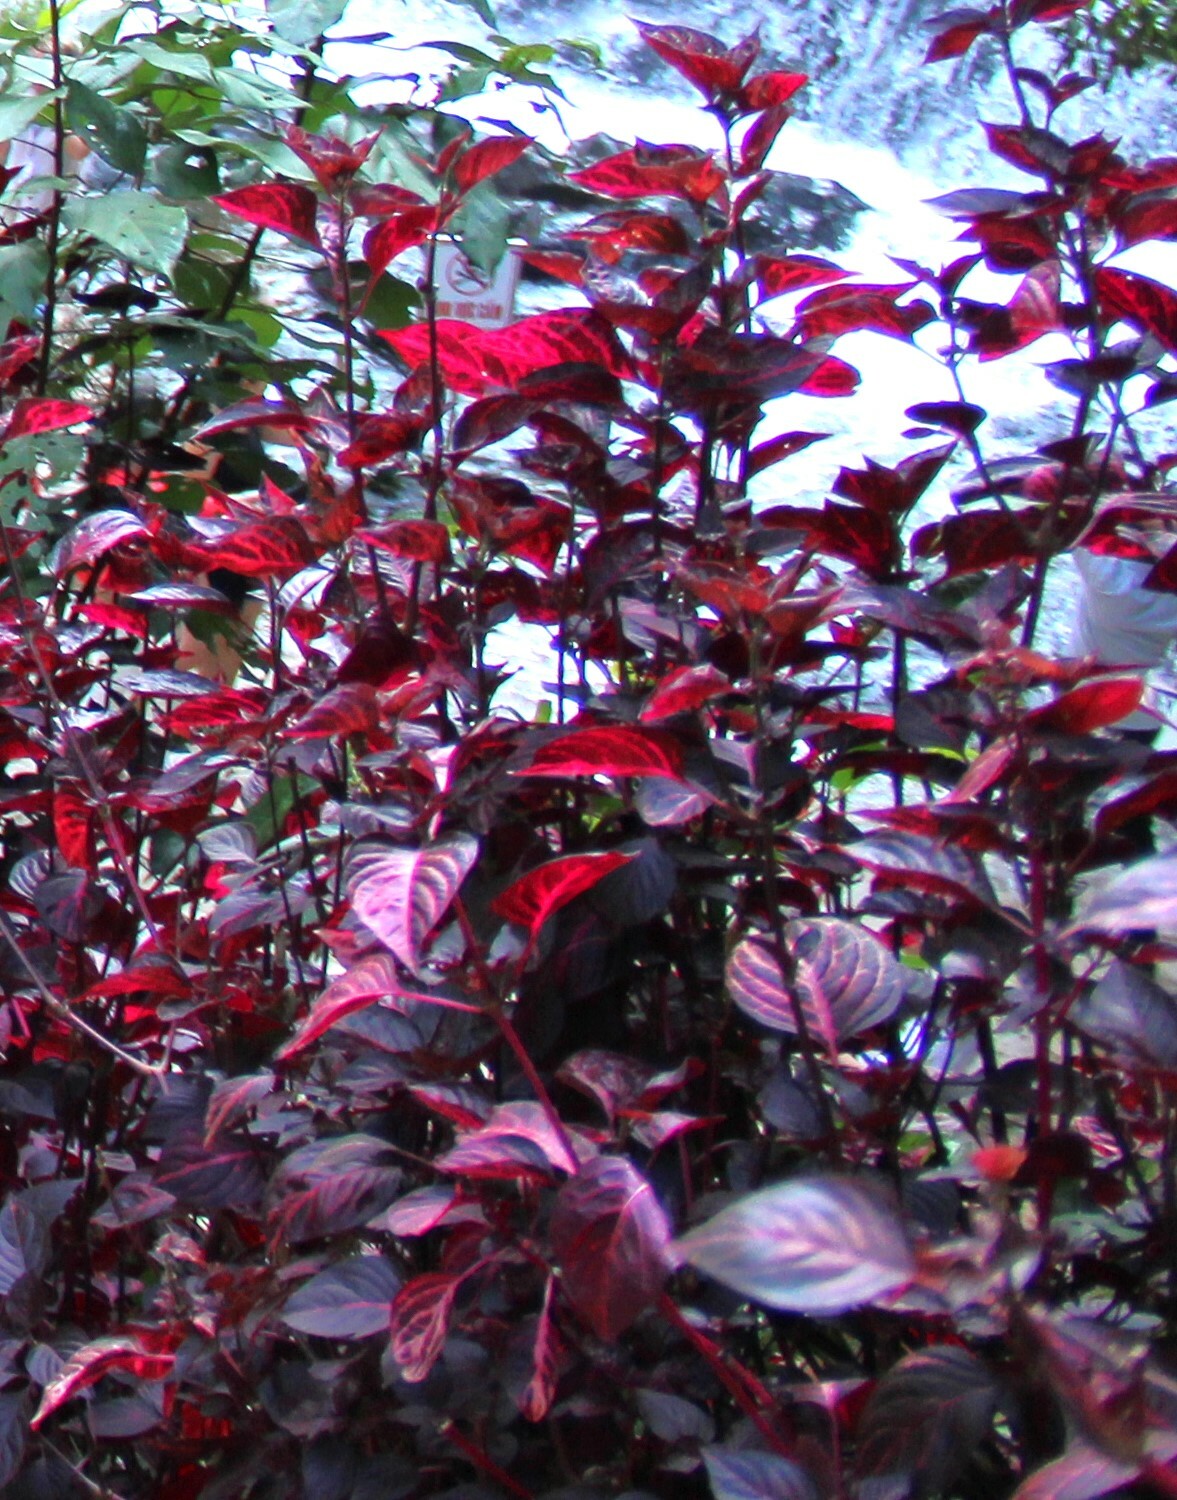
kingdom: Plantae
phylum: Tracheophyta
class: Magnoliopsida
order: Caryophyllales
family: Amaranthaceae
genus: Iresine
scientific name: Iresine diffusa
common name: Juba's-bush
